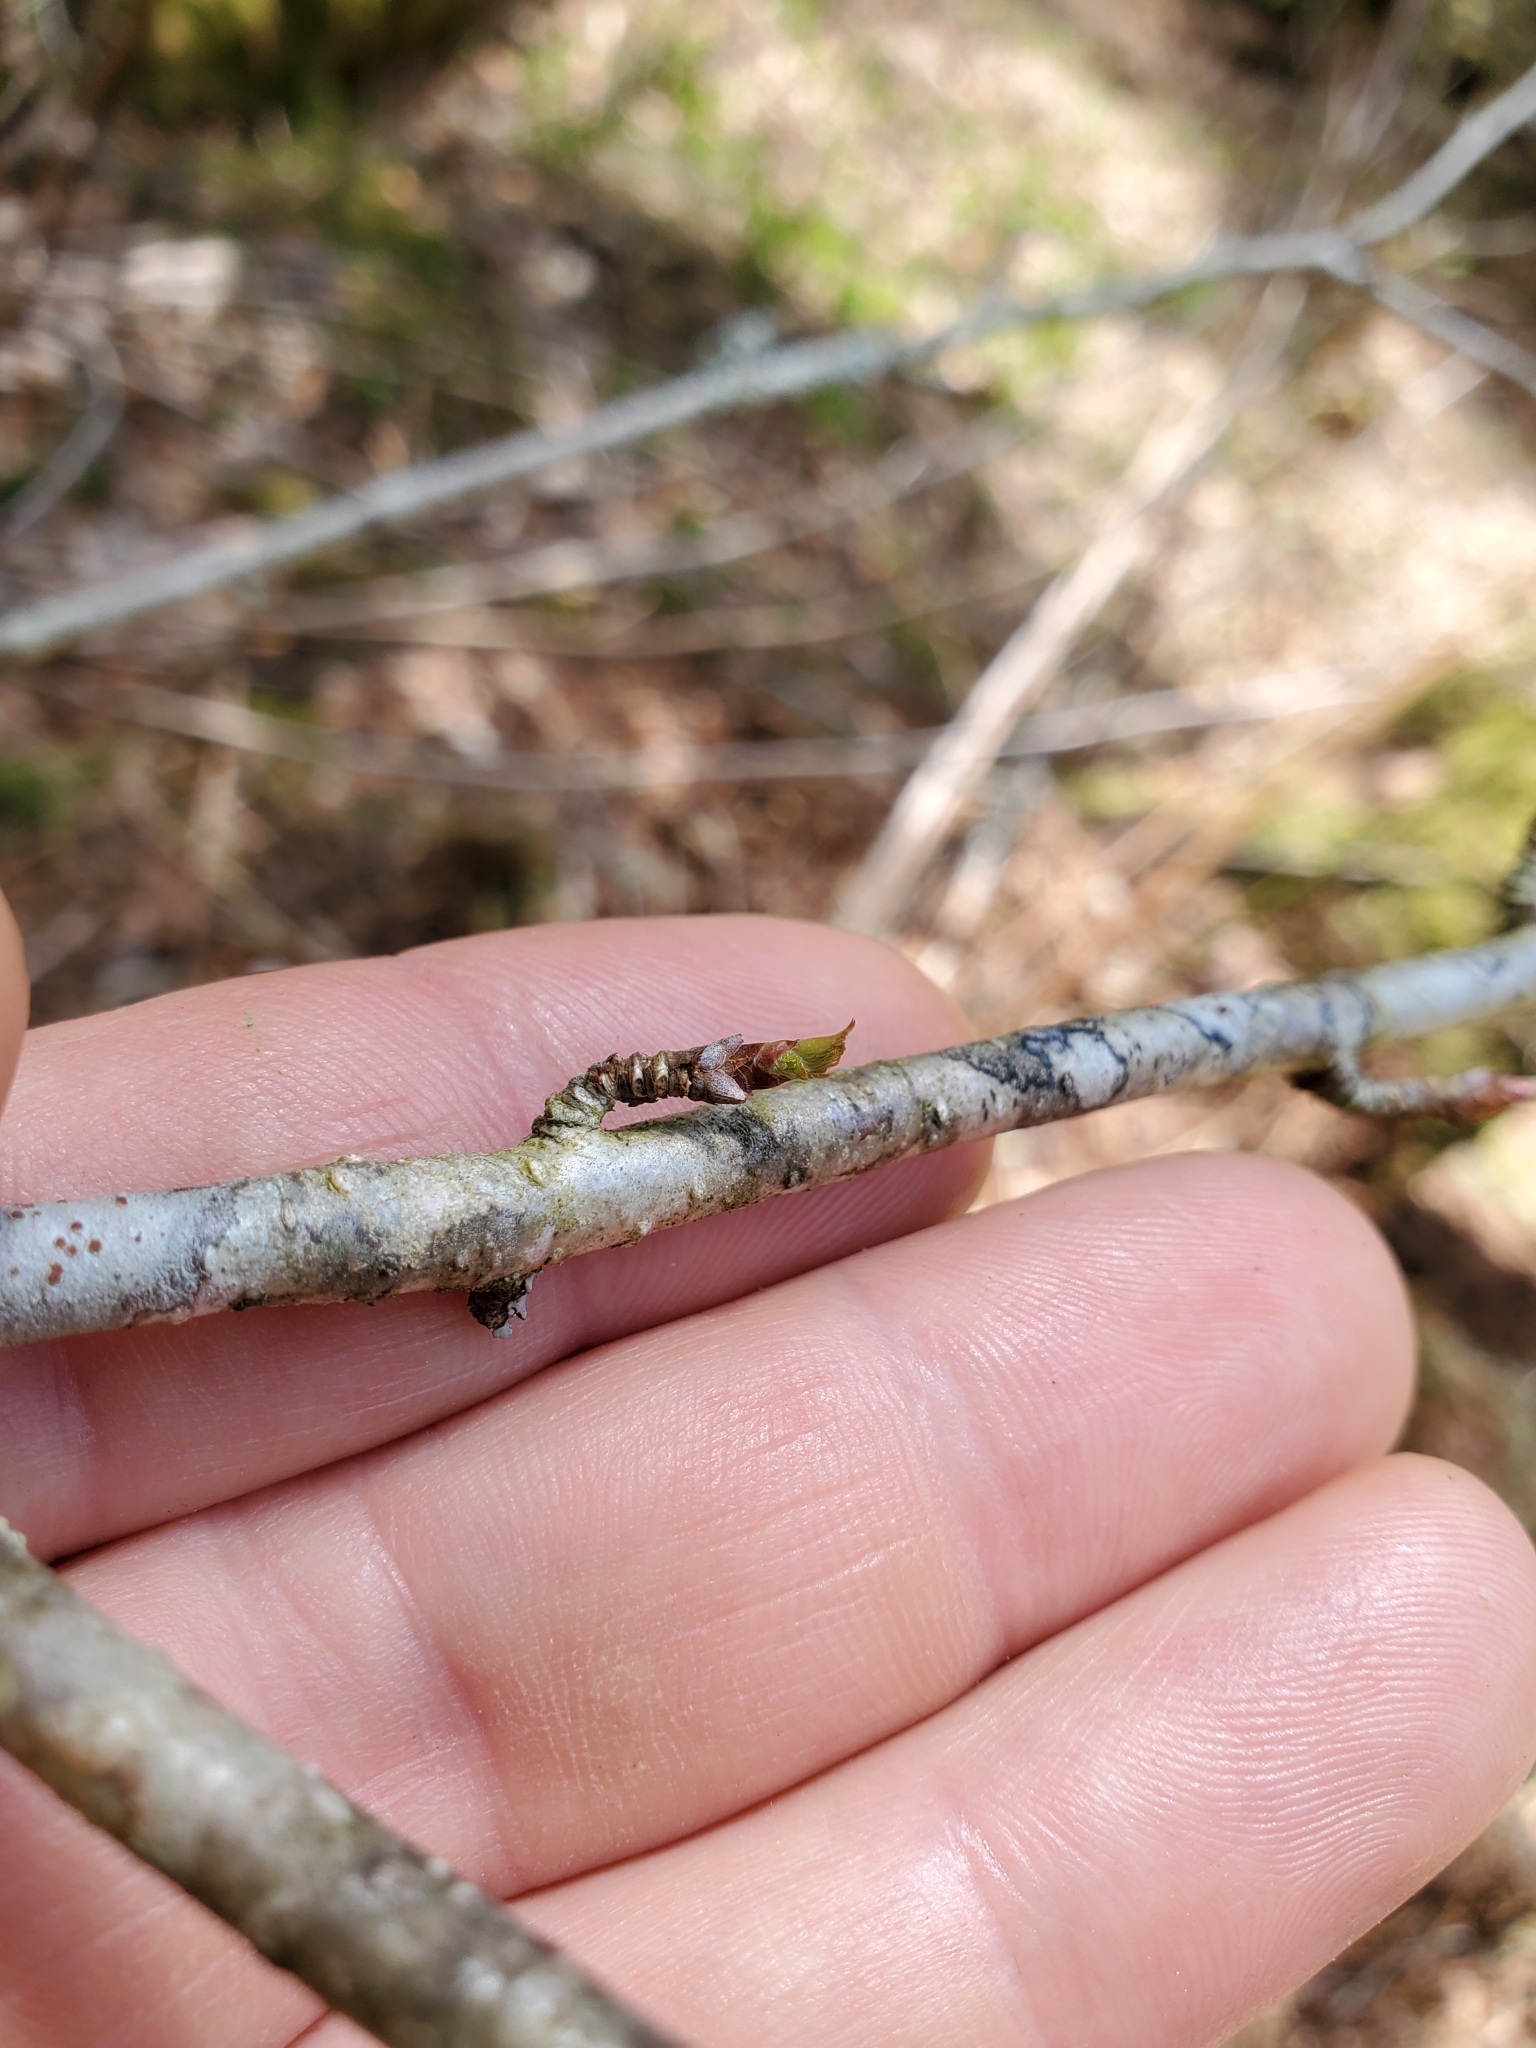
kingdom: Plantae
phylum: Tracheophyta
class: Magnoliopsida
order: Fagales
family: Betulaceae
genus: Betula
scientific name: Betula alleghaniensis
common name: Yellow birch
